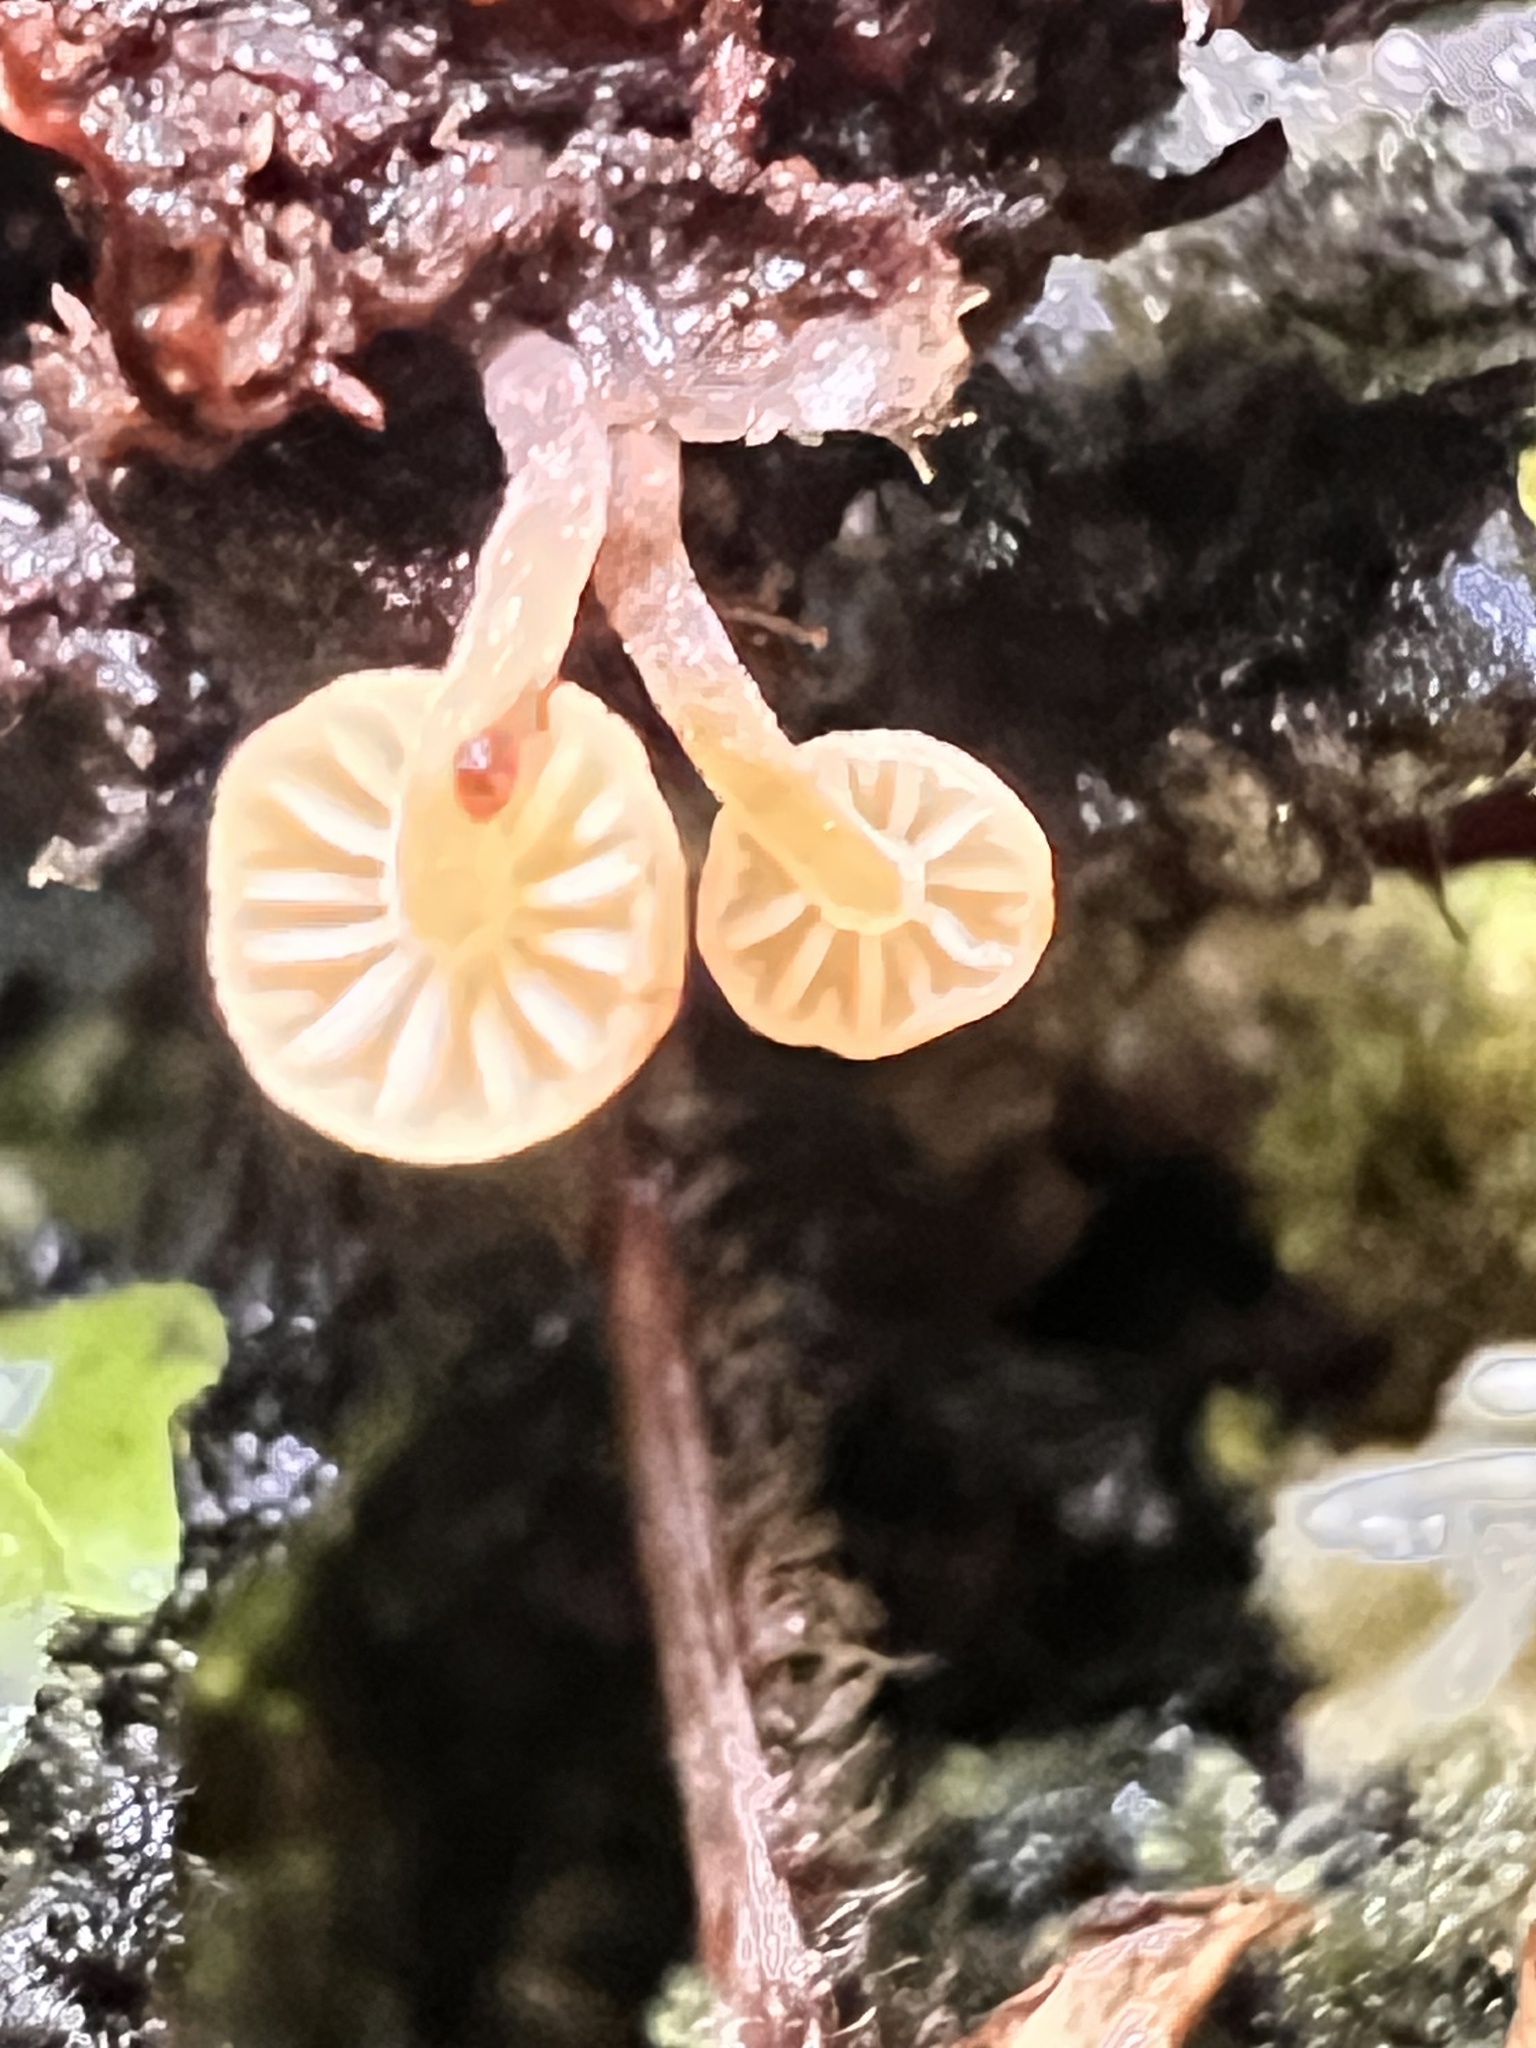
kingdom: Fungi
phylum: Basidiomycota
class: Agaricomycetes
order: Agaricales
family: Mycenaceae
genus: Mycena
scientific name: Mycena roseoflava
